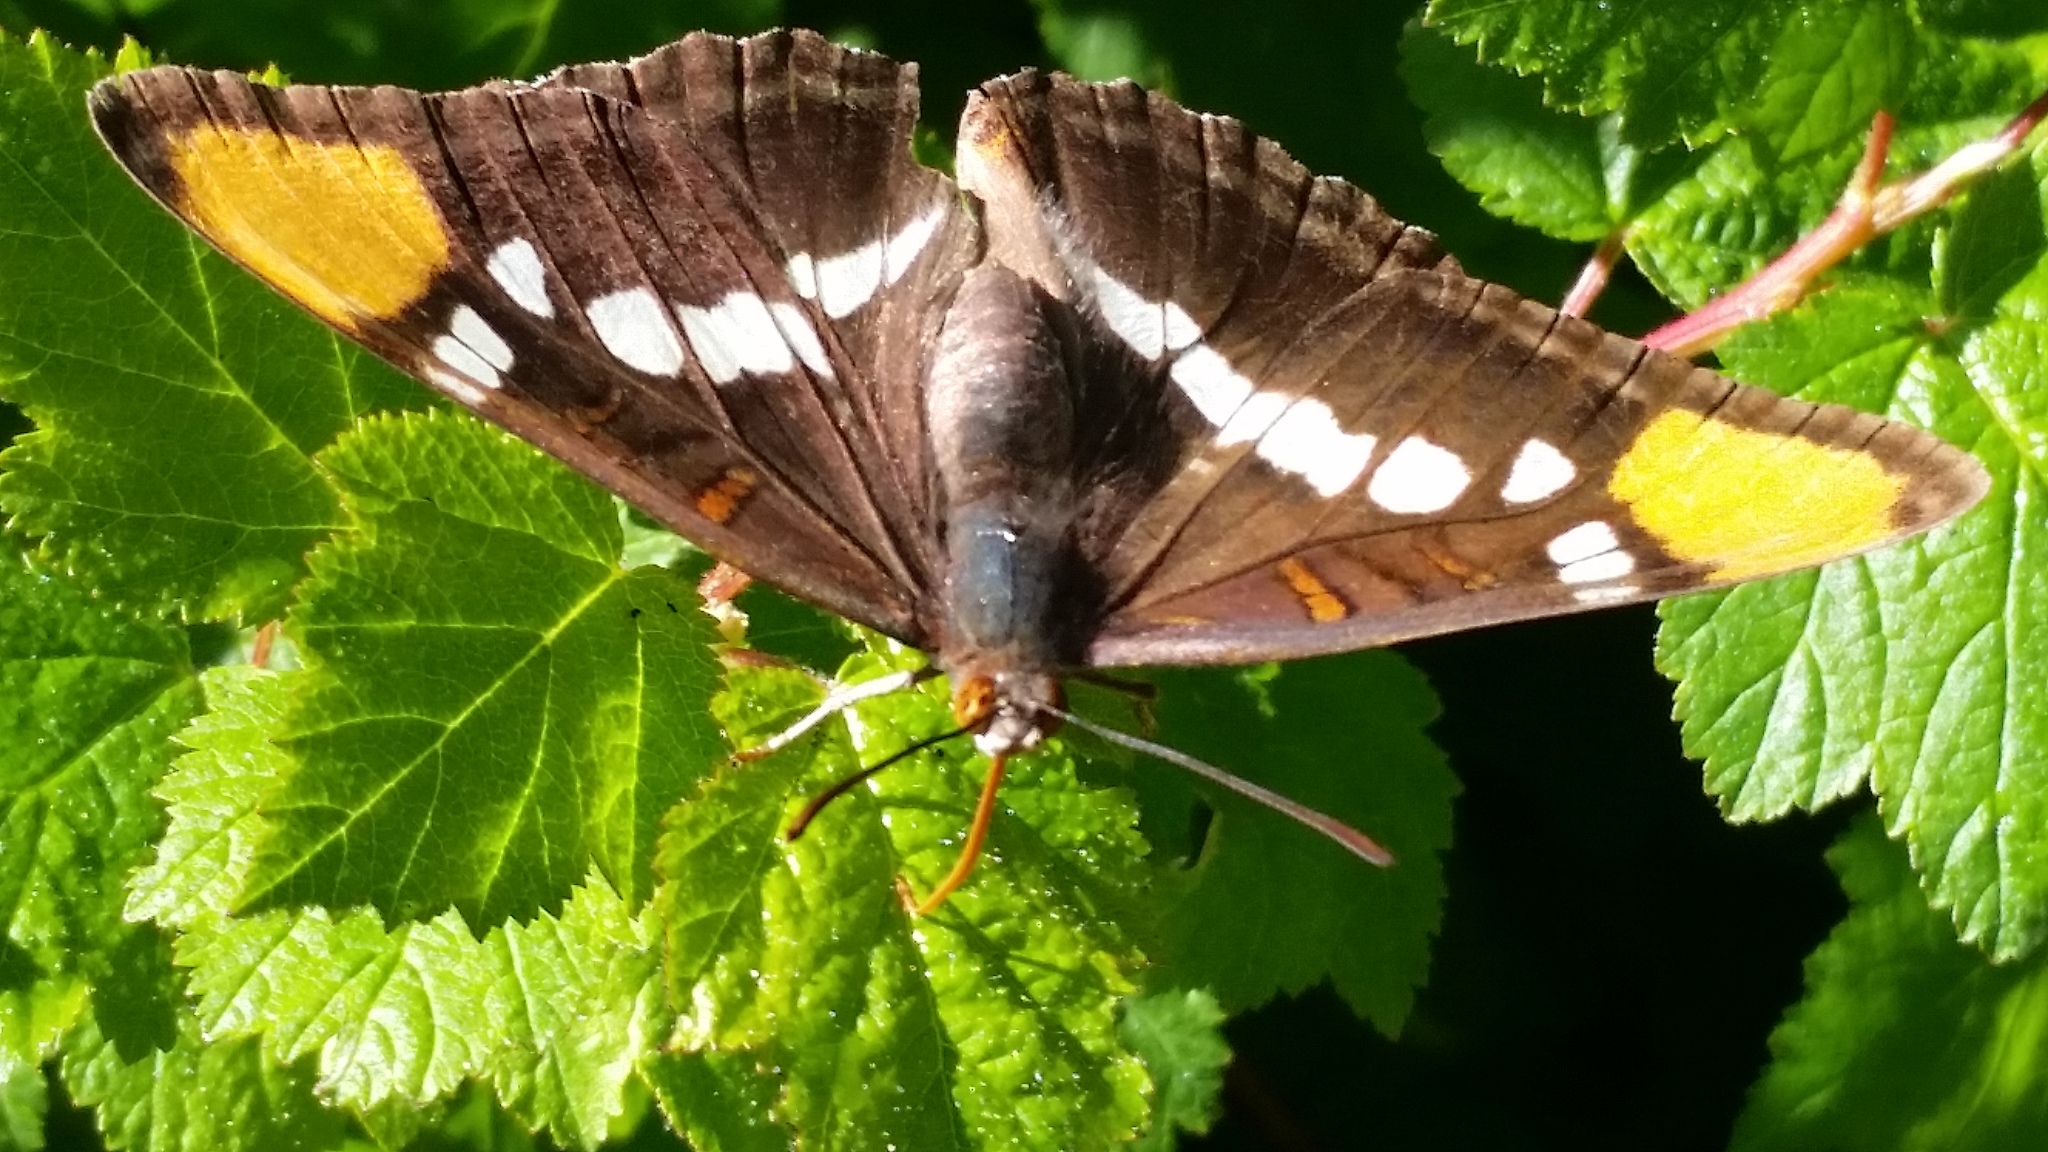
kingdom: Animalia
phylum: Arthropoda
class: Insecta
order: Lepidoptera
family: Nymphalidae
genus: Limenitis
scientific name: Limenitis bredowii
